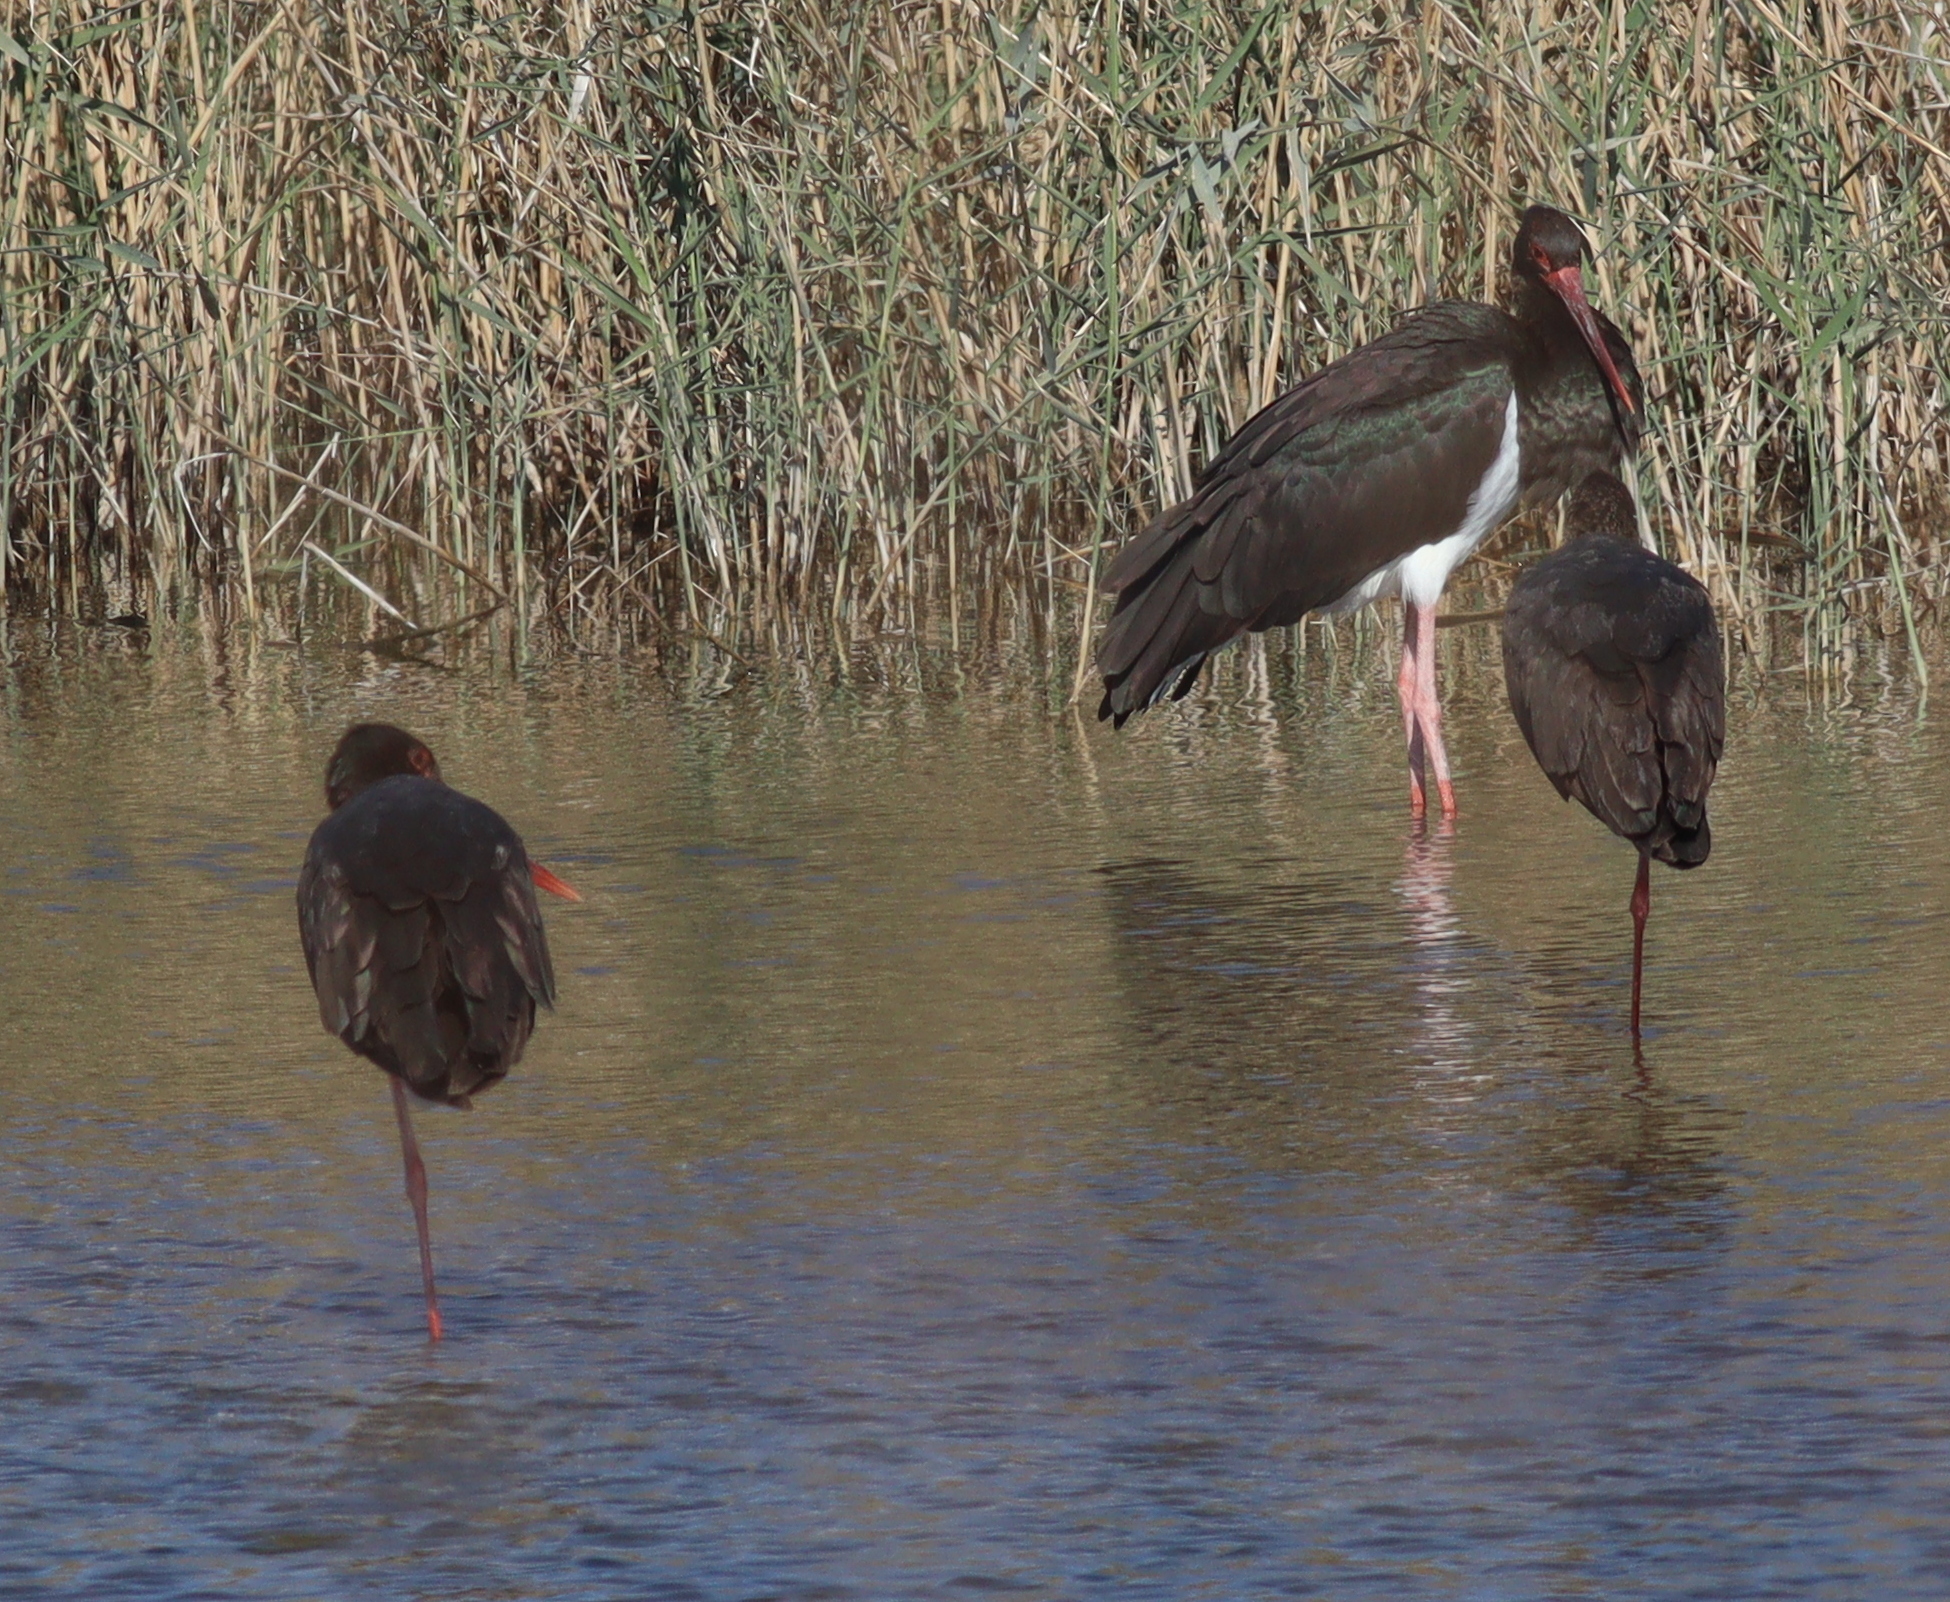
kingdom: Animalia
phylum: Chordata
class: Aves
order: Ciconiiformes
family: Ciconiidae
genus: Ciconia
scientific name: Ciconia nigra
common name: Black stork
